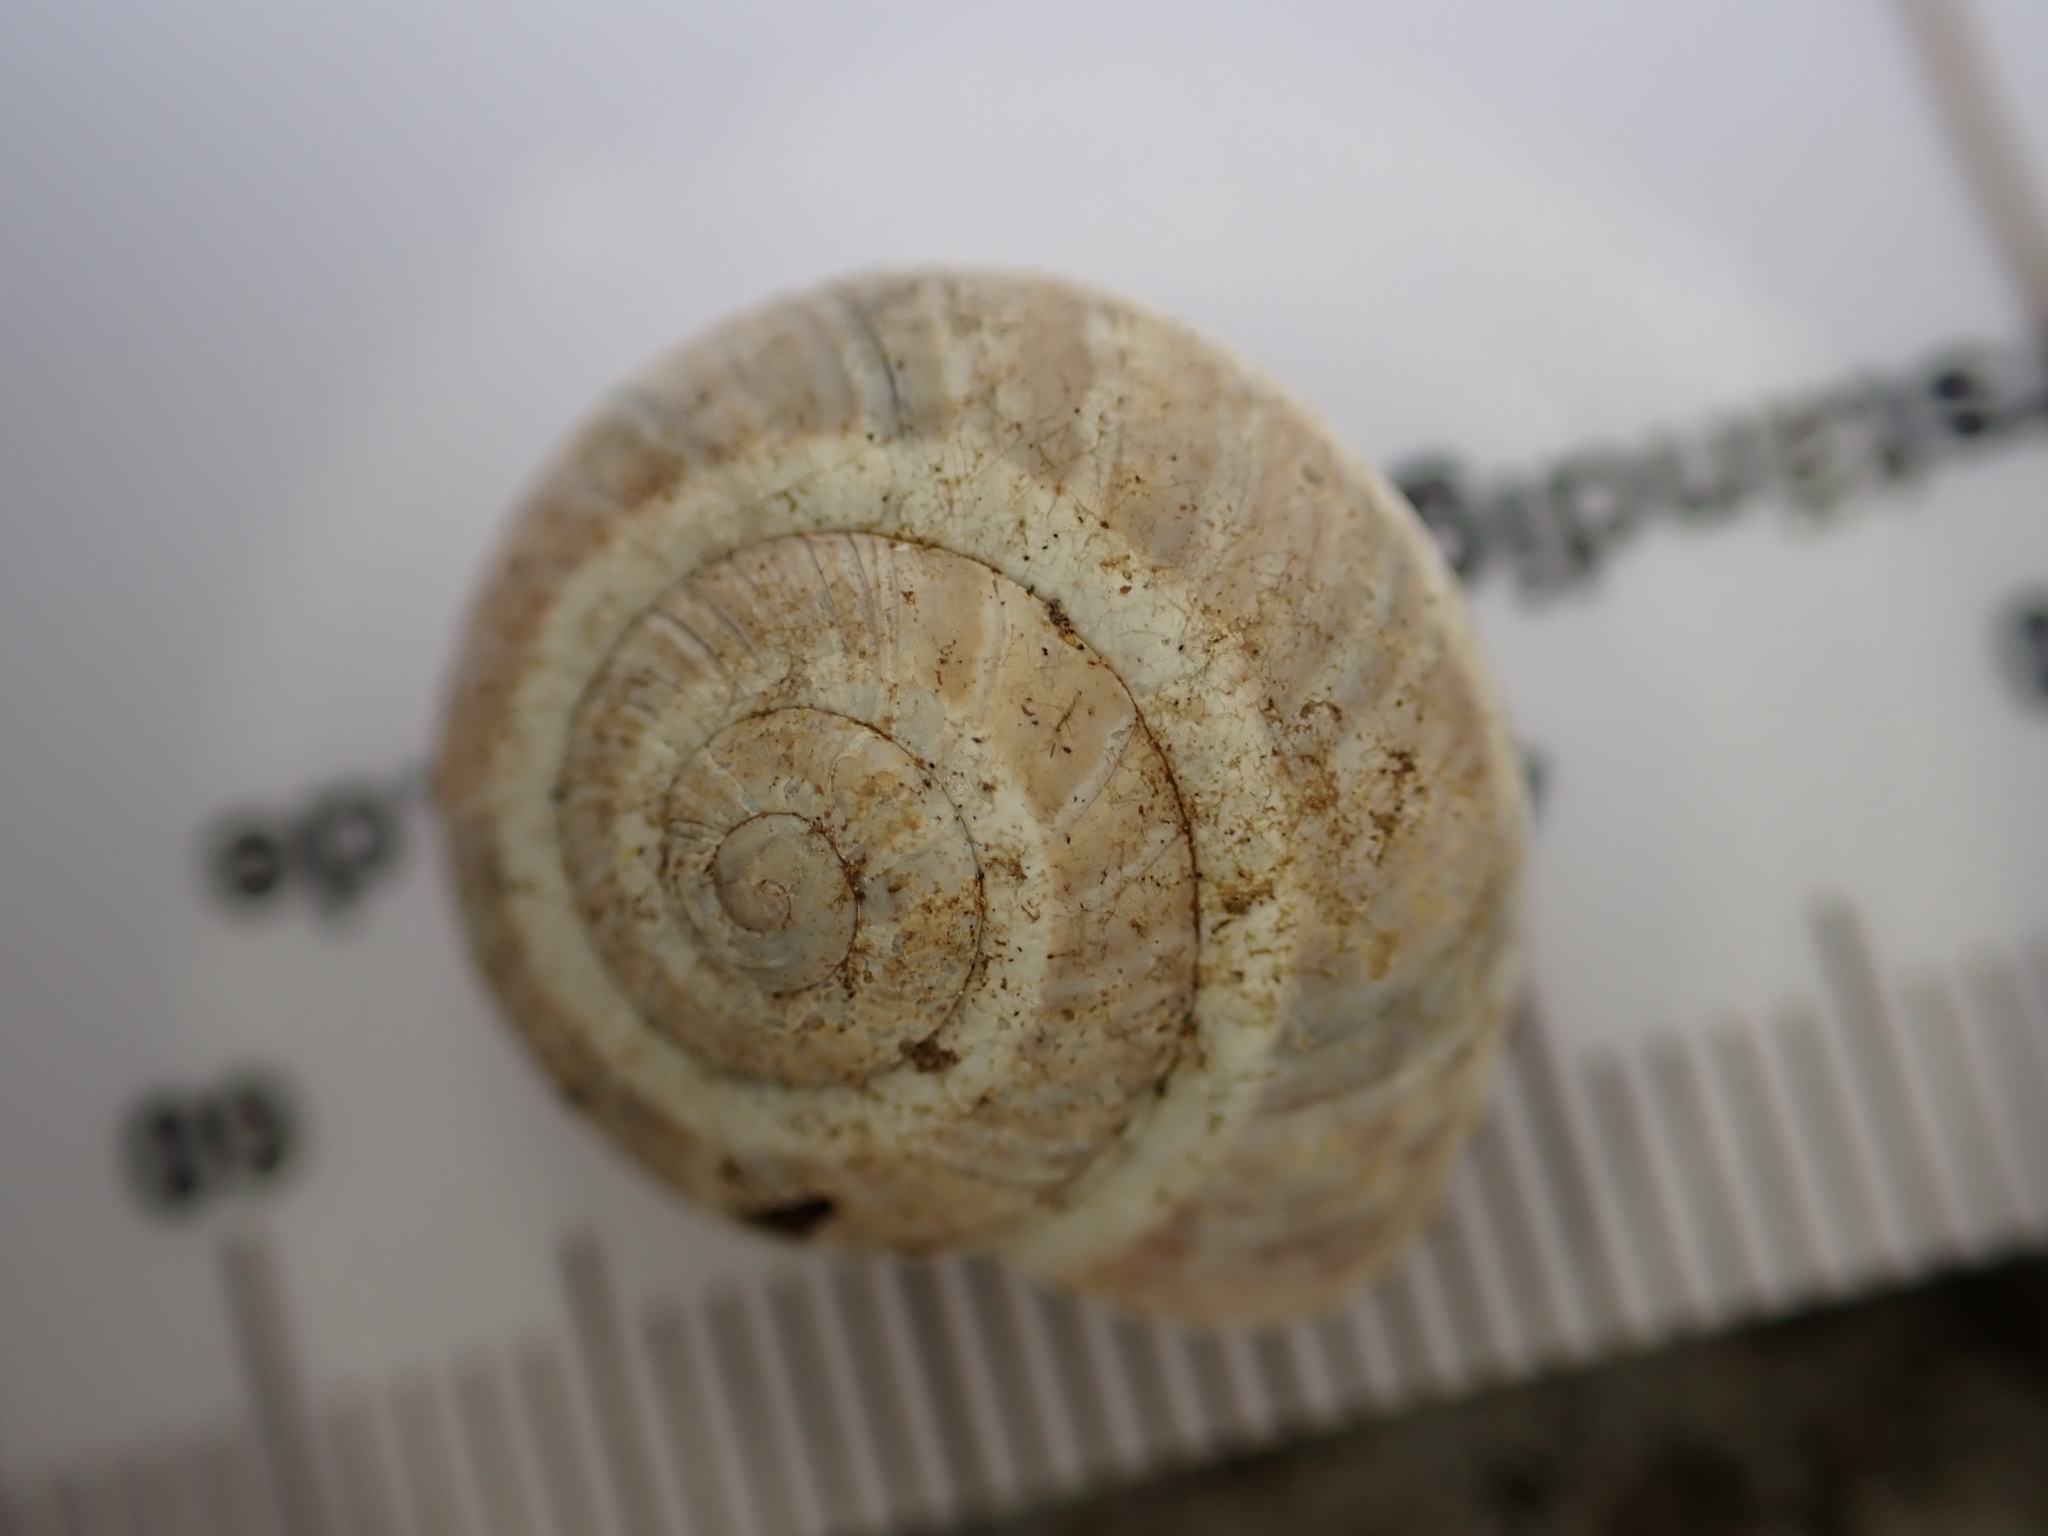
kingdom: Animalia
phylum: Mollusca
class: Gastropoda
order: Stylommatophora
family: Helicidae
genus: Pseudotachea
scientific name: Pseudotachea splendida
